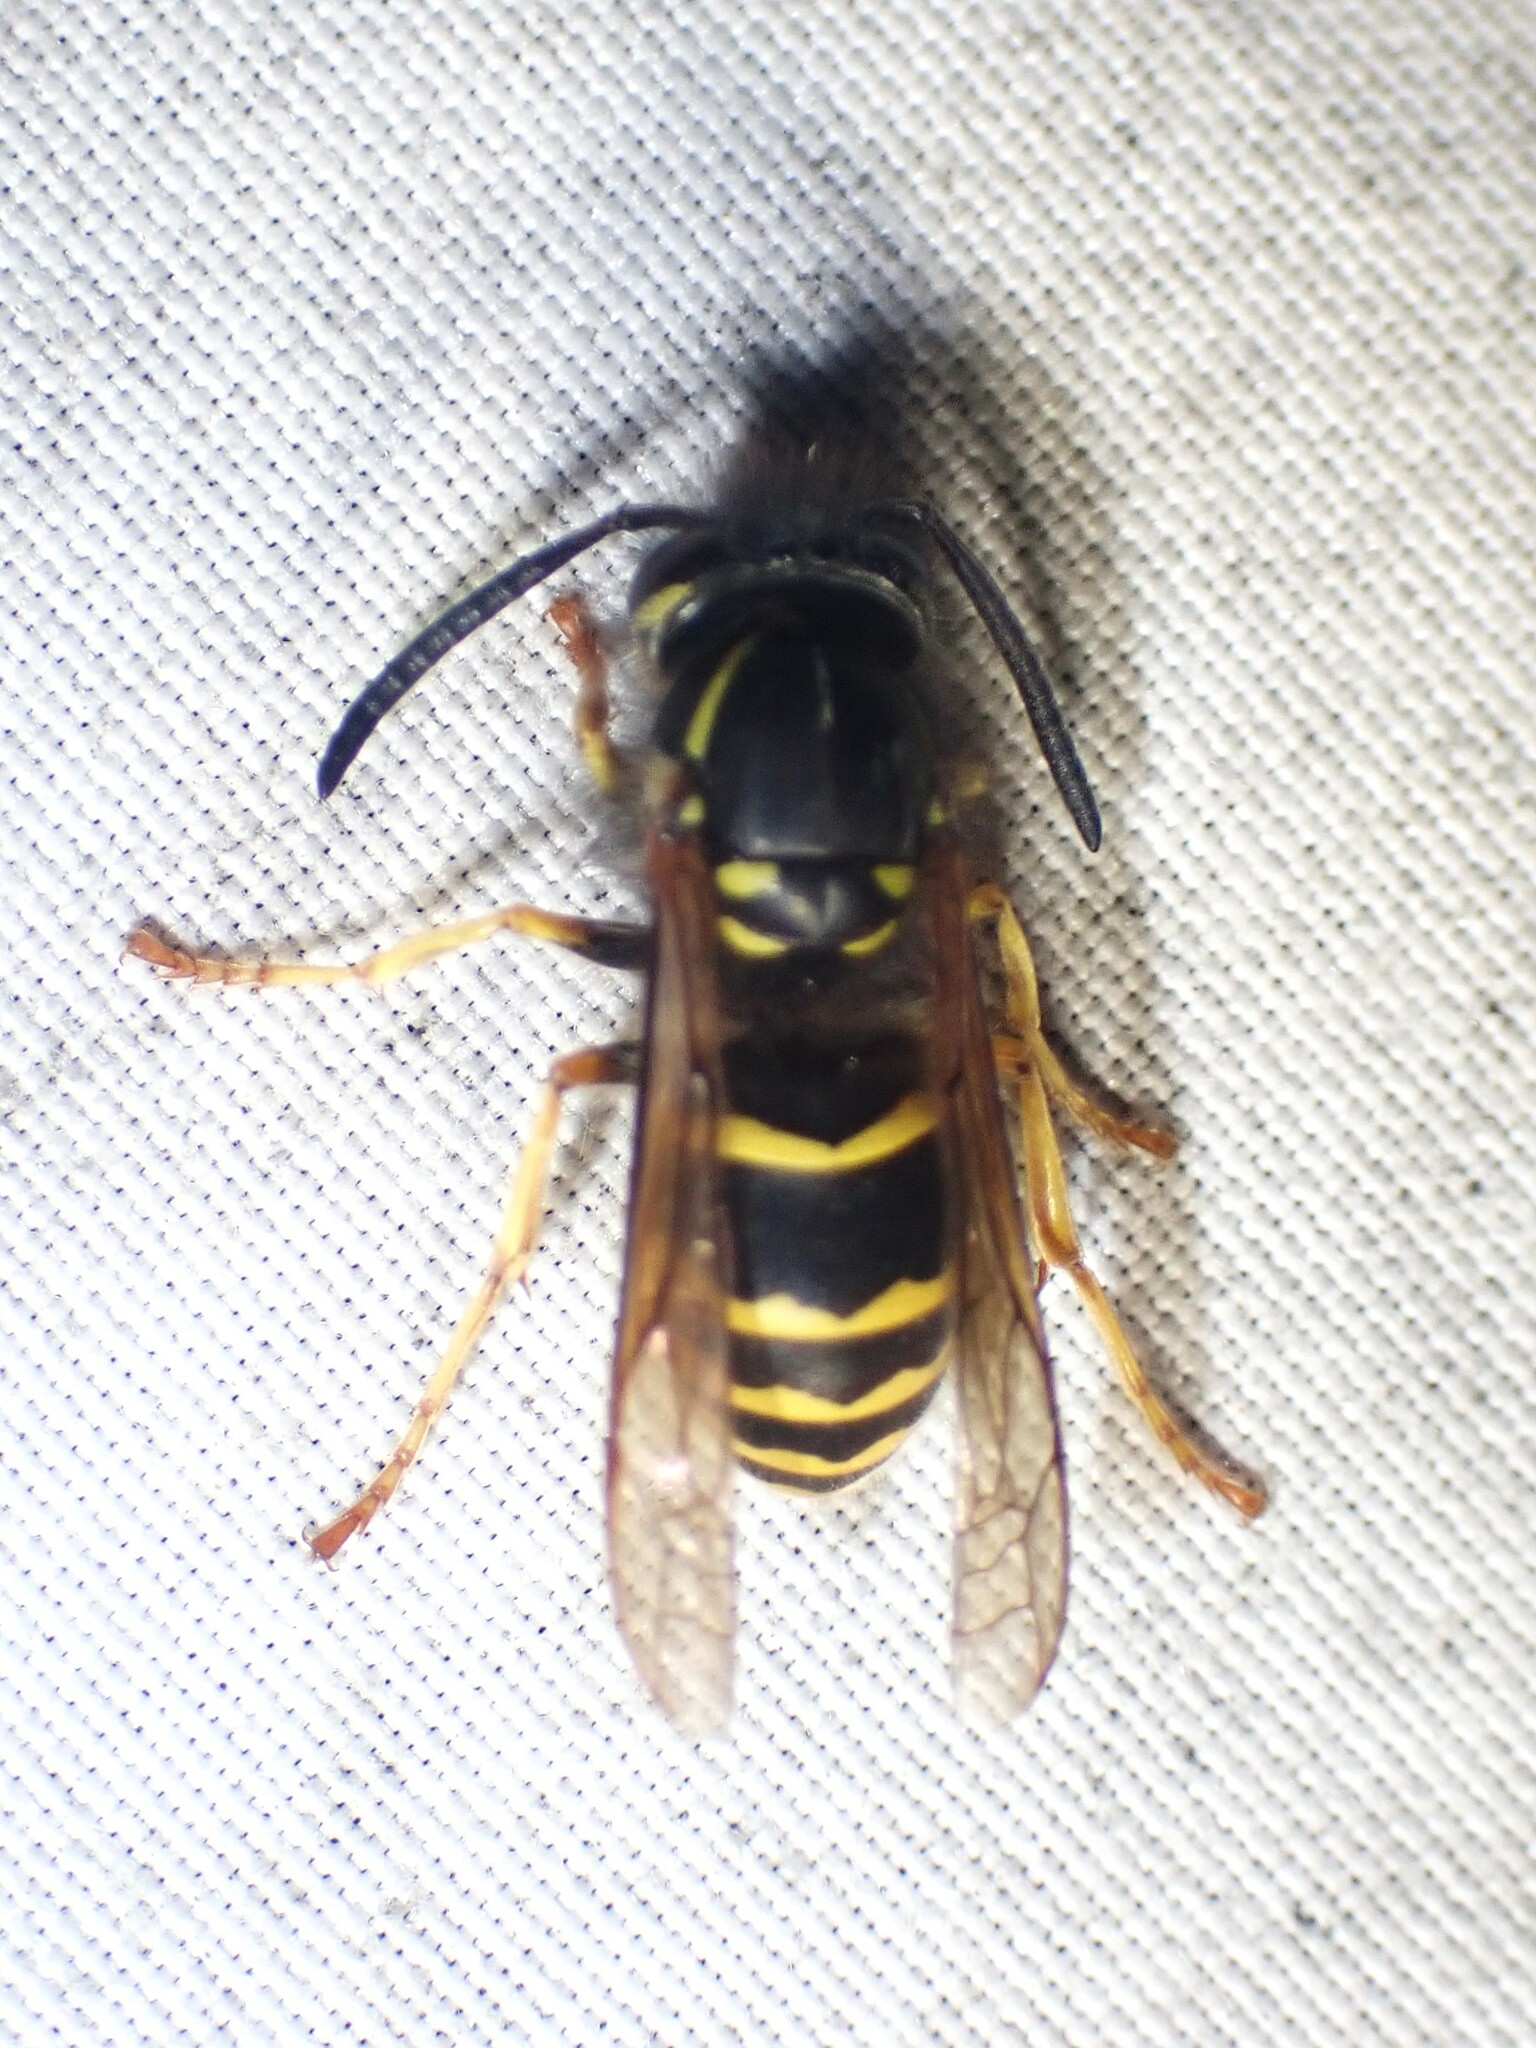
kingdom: Animalia
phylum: Arthropoda
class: Insecta
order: Hymenoptera
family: Vespidae
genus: Vespula
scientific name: Vespula alascensis
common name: Alaska yellowjacket
